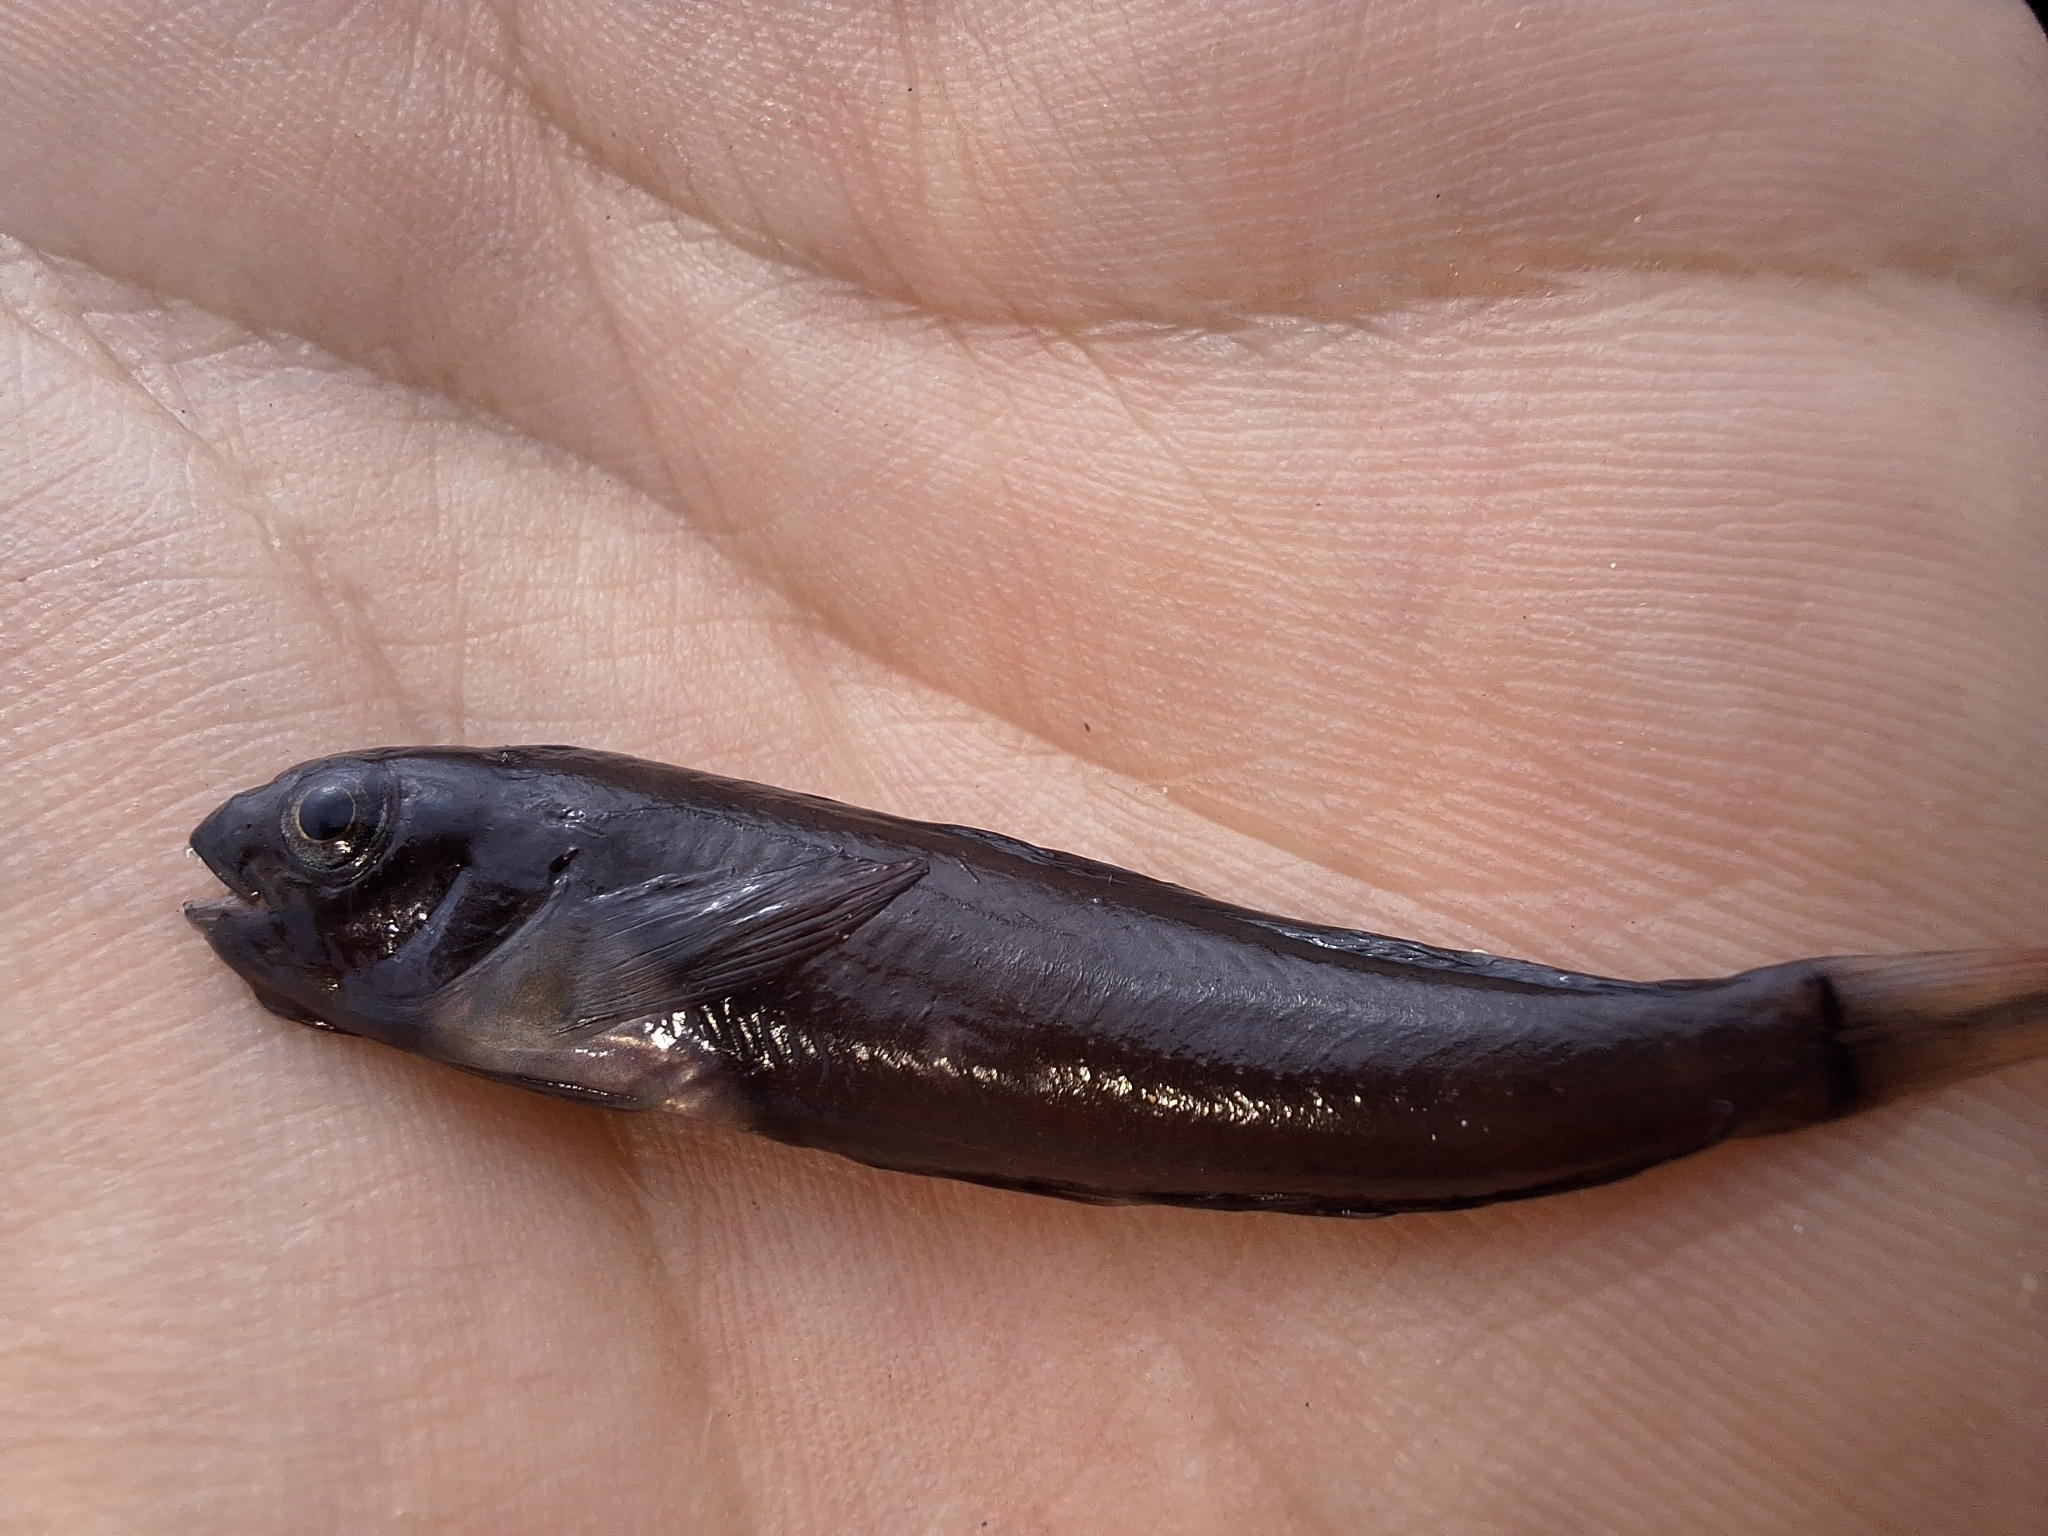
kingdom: Animalia
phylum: Chordata
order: Perciformes
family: Blenniidae
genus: Ophioblennius
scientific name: Ophioblennius steindachneri
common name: Panamic fanged blenny
